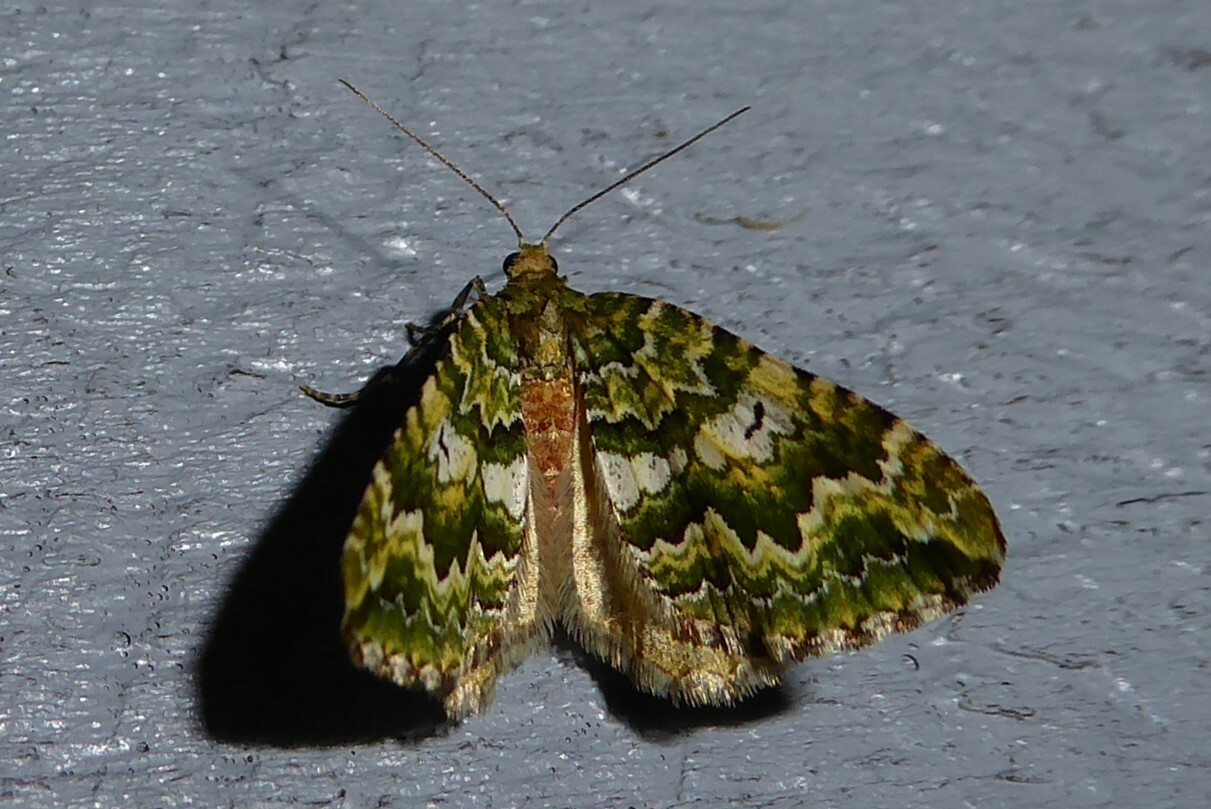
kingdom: Animalia
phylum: Arthropoda
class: Insecta
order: Lepidoptera
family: Geometridae
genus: Asaphodes
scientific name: Asaphodes beata
